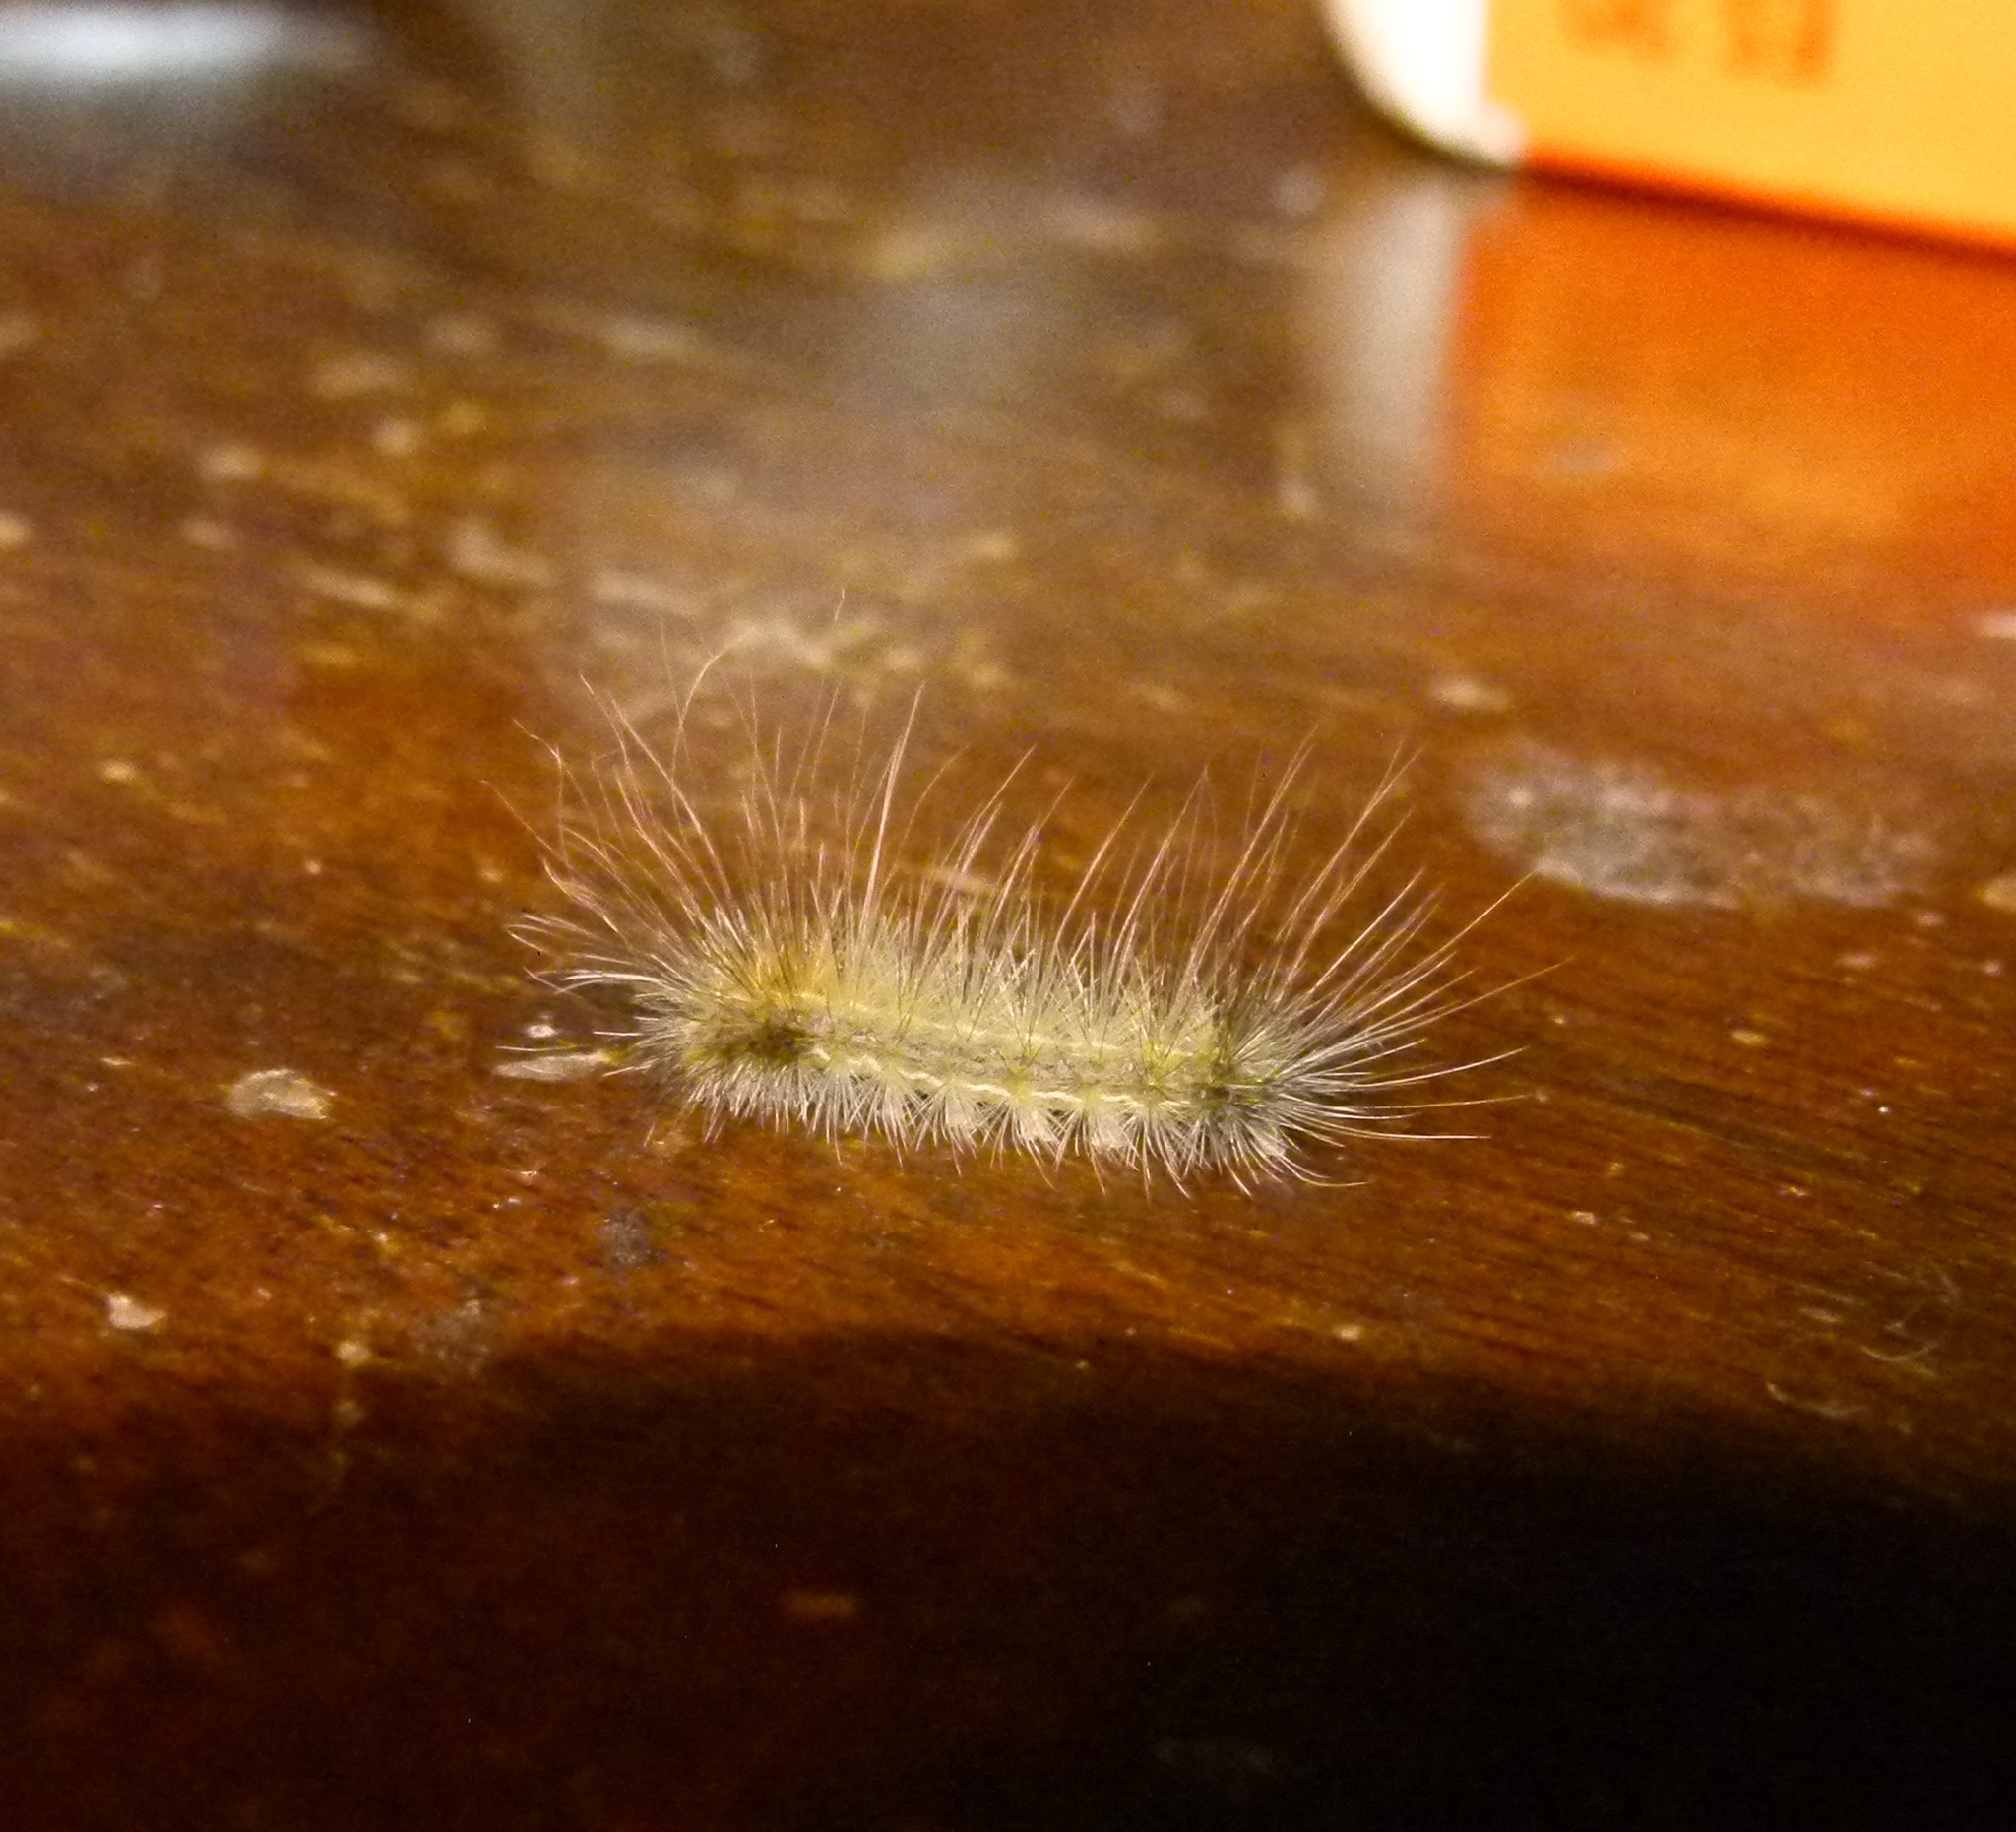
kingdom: Animalia
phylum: Arthropoda
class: Insecta
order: Lepidoptera
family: Erebidae
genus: Spilosoma
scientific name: Spilosoma virginica
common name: Virginia tiger moth
